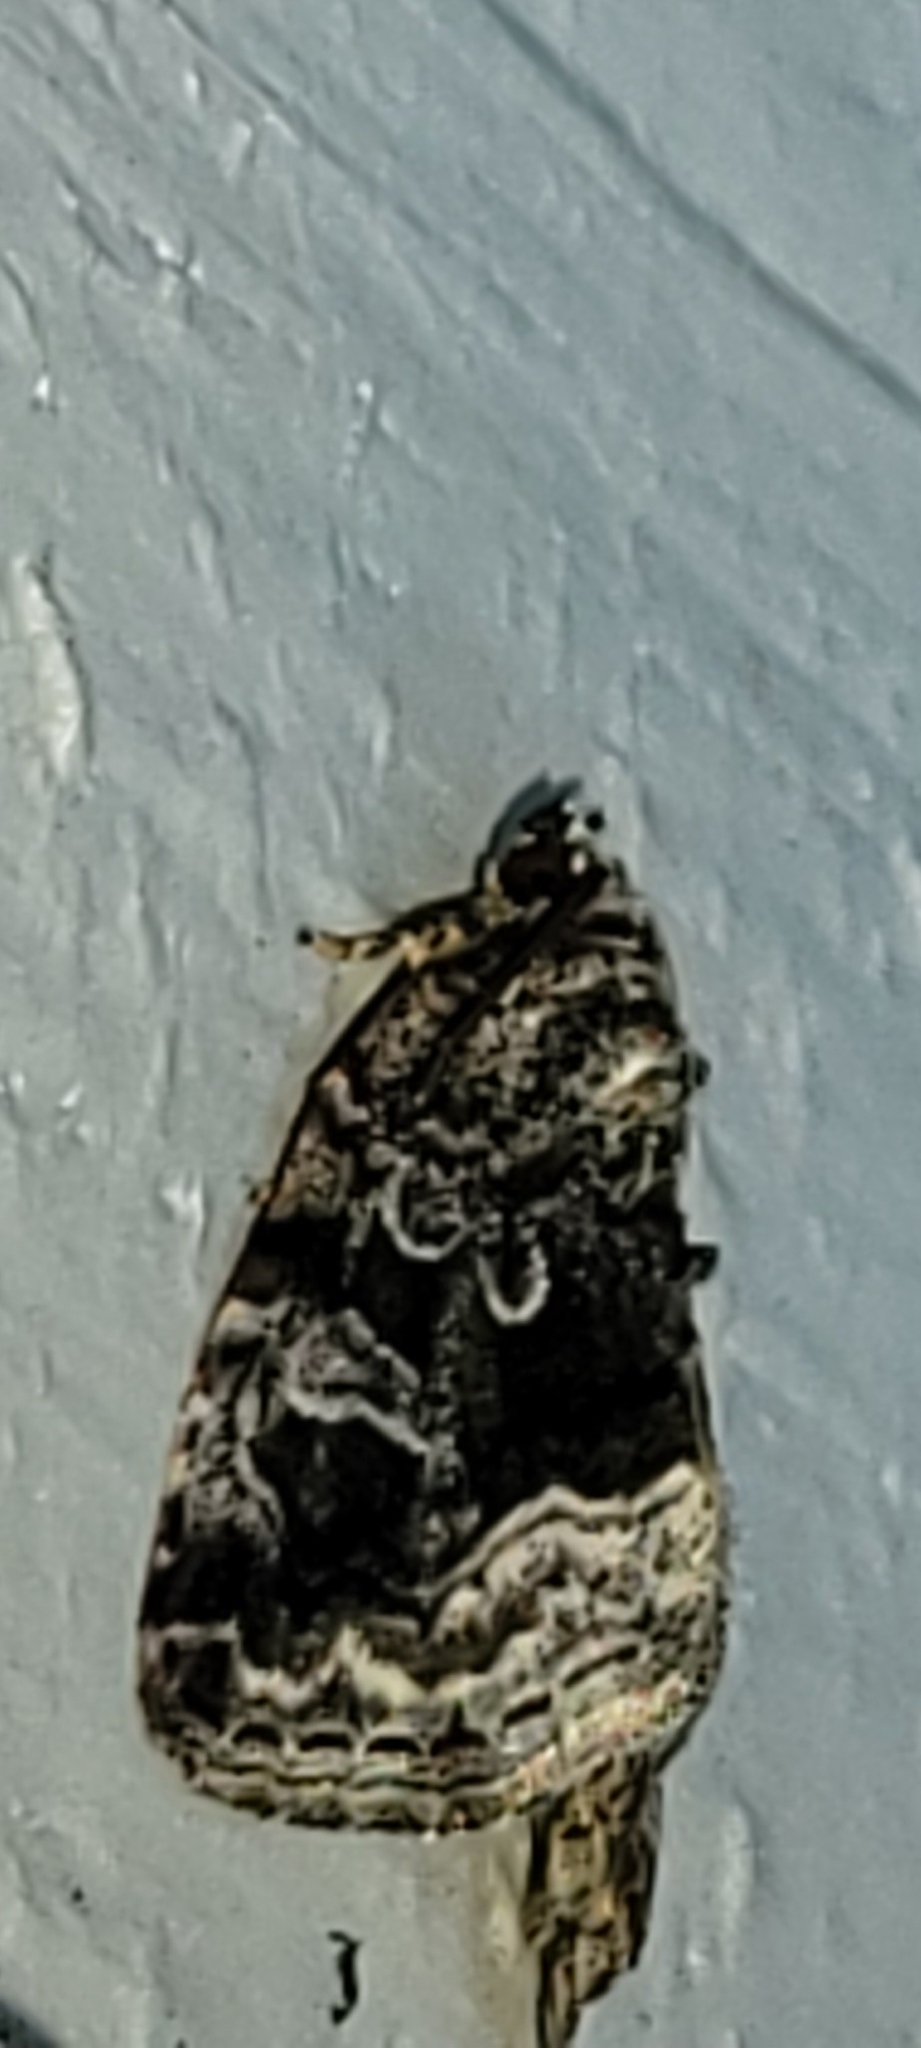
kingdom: Animalia
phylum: Arthropoda
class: Insecta
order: Lepidoptera
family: Noctuidae
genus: Protodeltote
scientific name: Protodeltote muscosula
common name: Large mossy glyph
